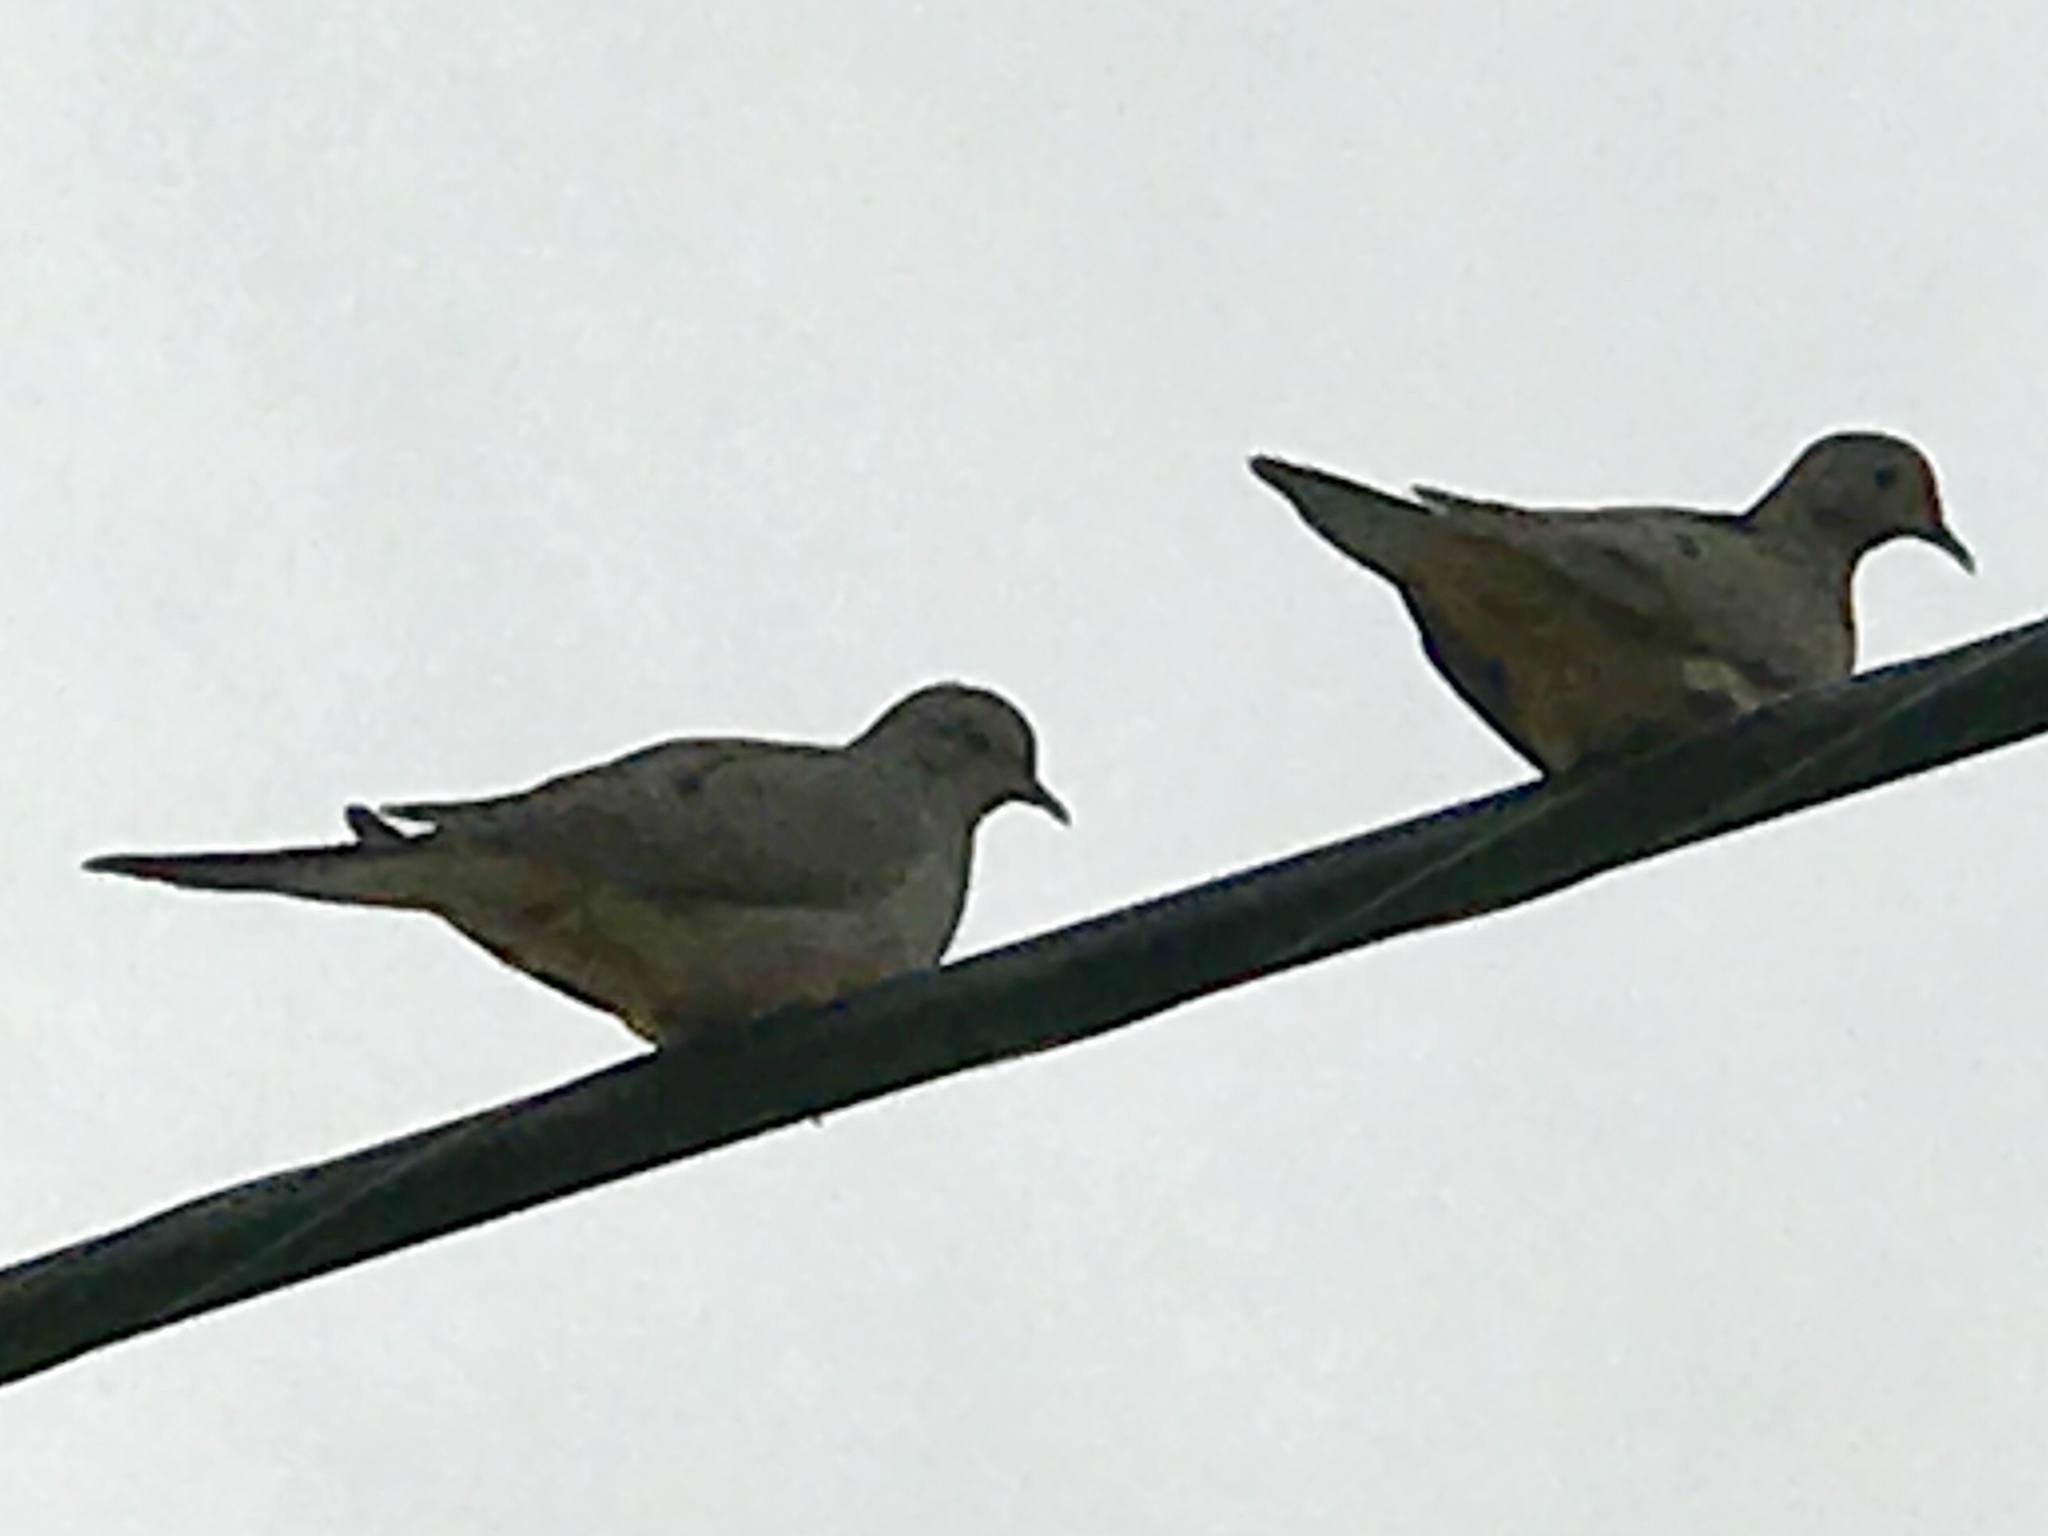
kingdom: Animalia
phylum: Chordata
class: Aves
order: Columbiformes
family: Columbidae
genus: Zenaida
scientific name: Zenaida macroura
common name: Mourning dove
